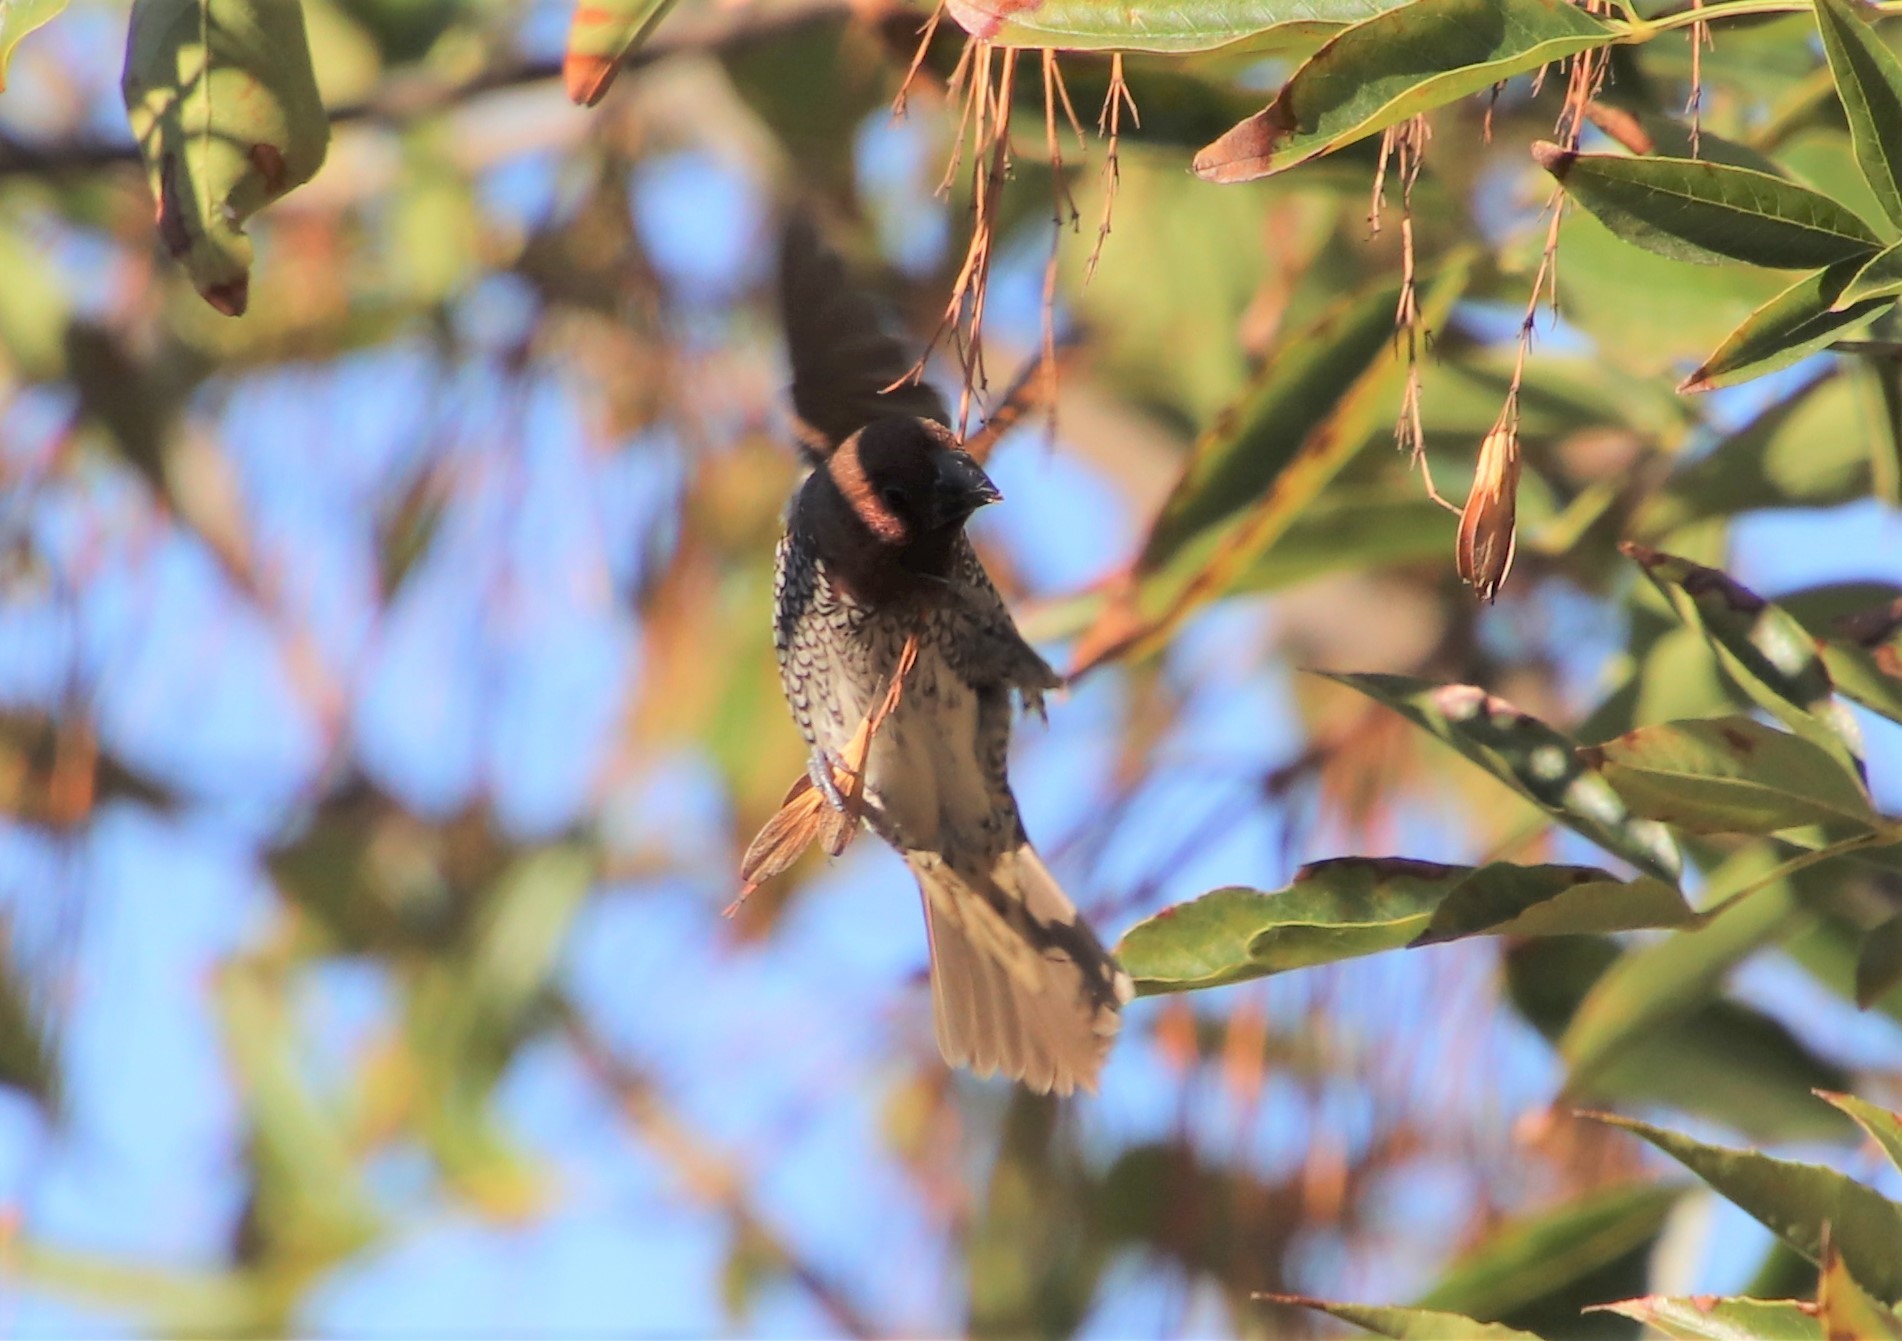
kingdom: Animalia
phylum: Chordata
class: Aves
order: Passeriformes
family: Estrildidae
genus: Lonchura
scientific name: Lonchura punctulata
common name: Scaly-breasted munia
